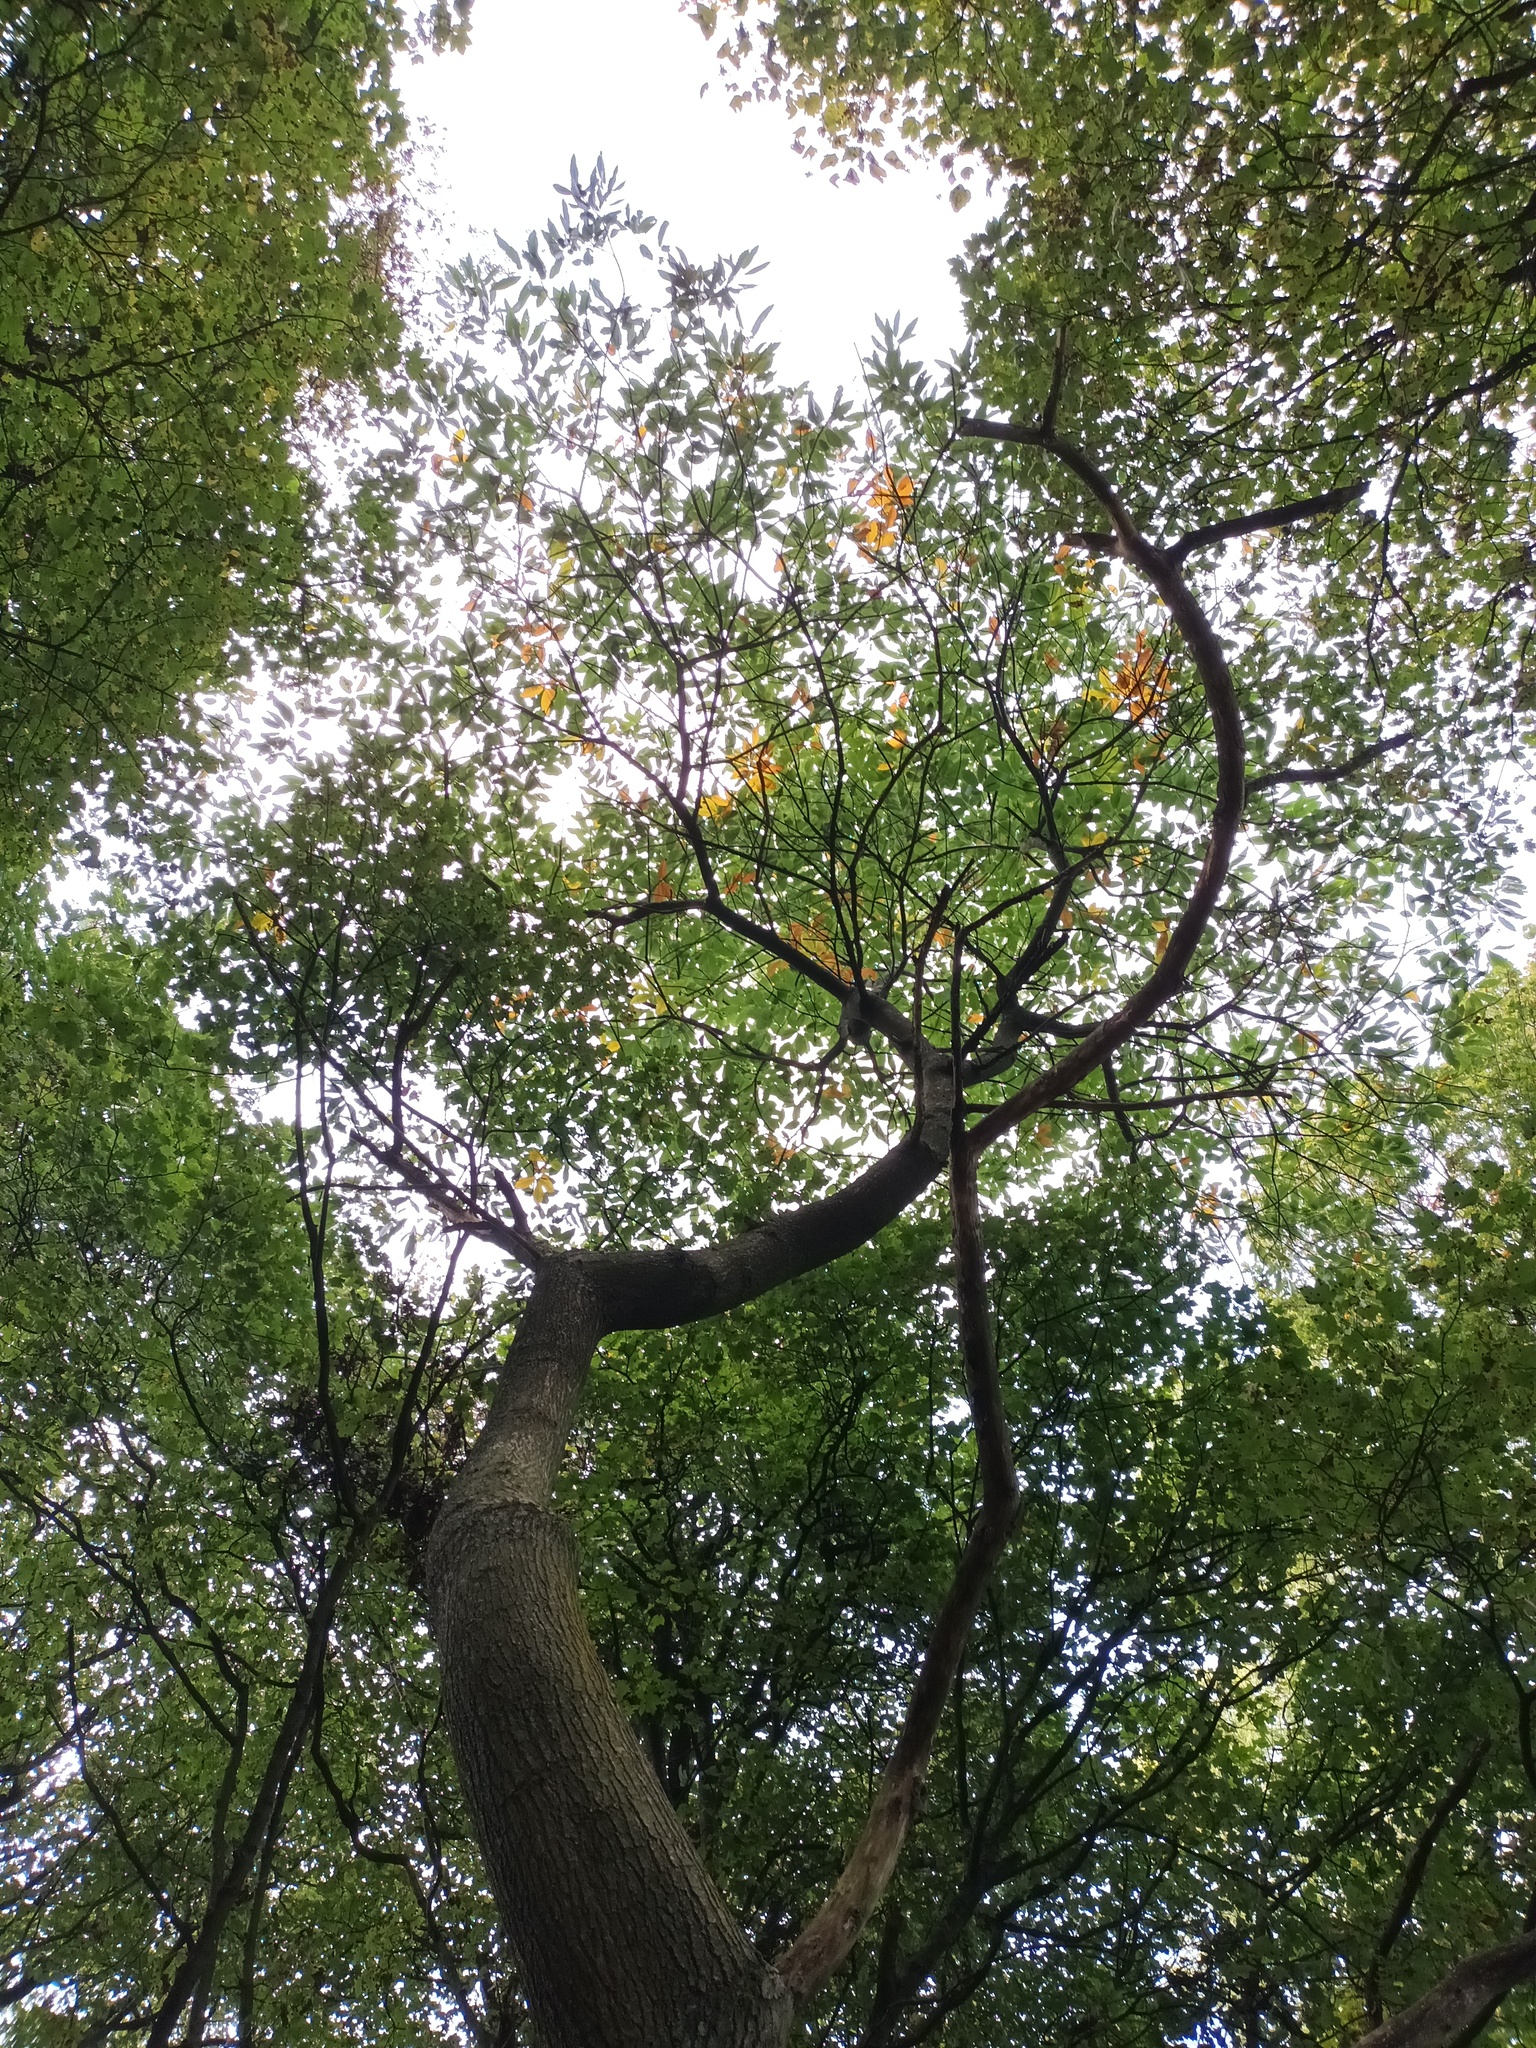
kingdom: Plantae
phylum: Tracheophyta
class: Magnoliopsida
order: Fagales
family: Fagaceae
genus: Castanea
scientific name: Castanea sativa
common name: Sweet chestnut
